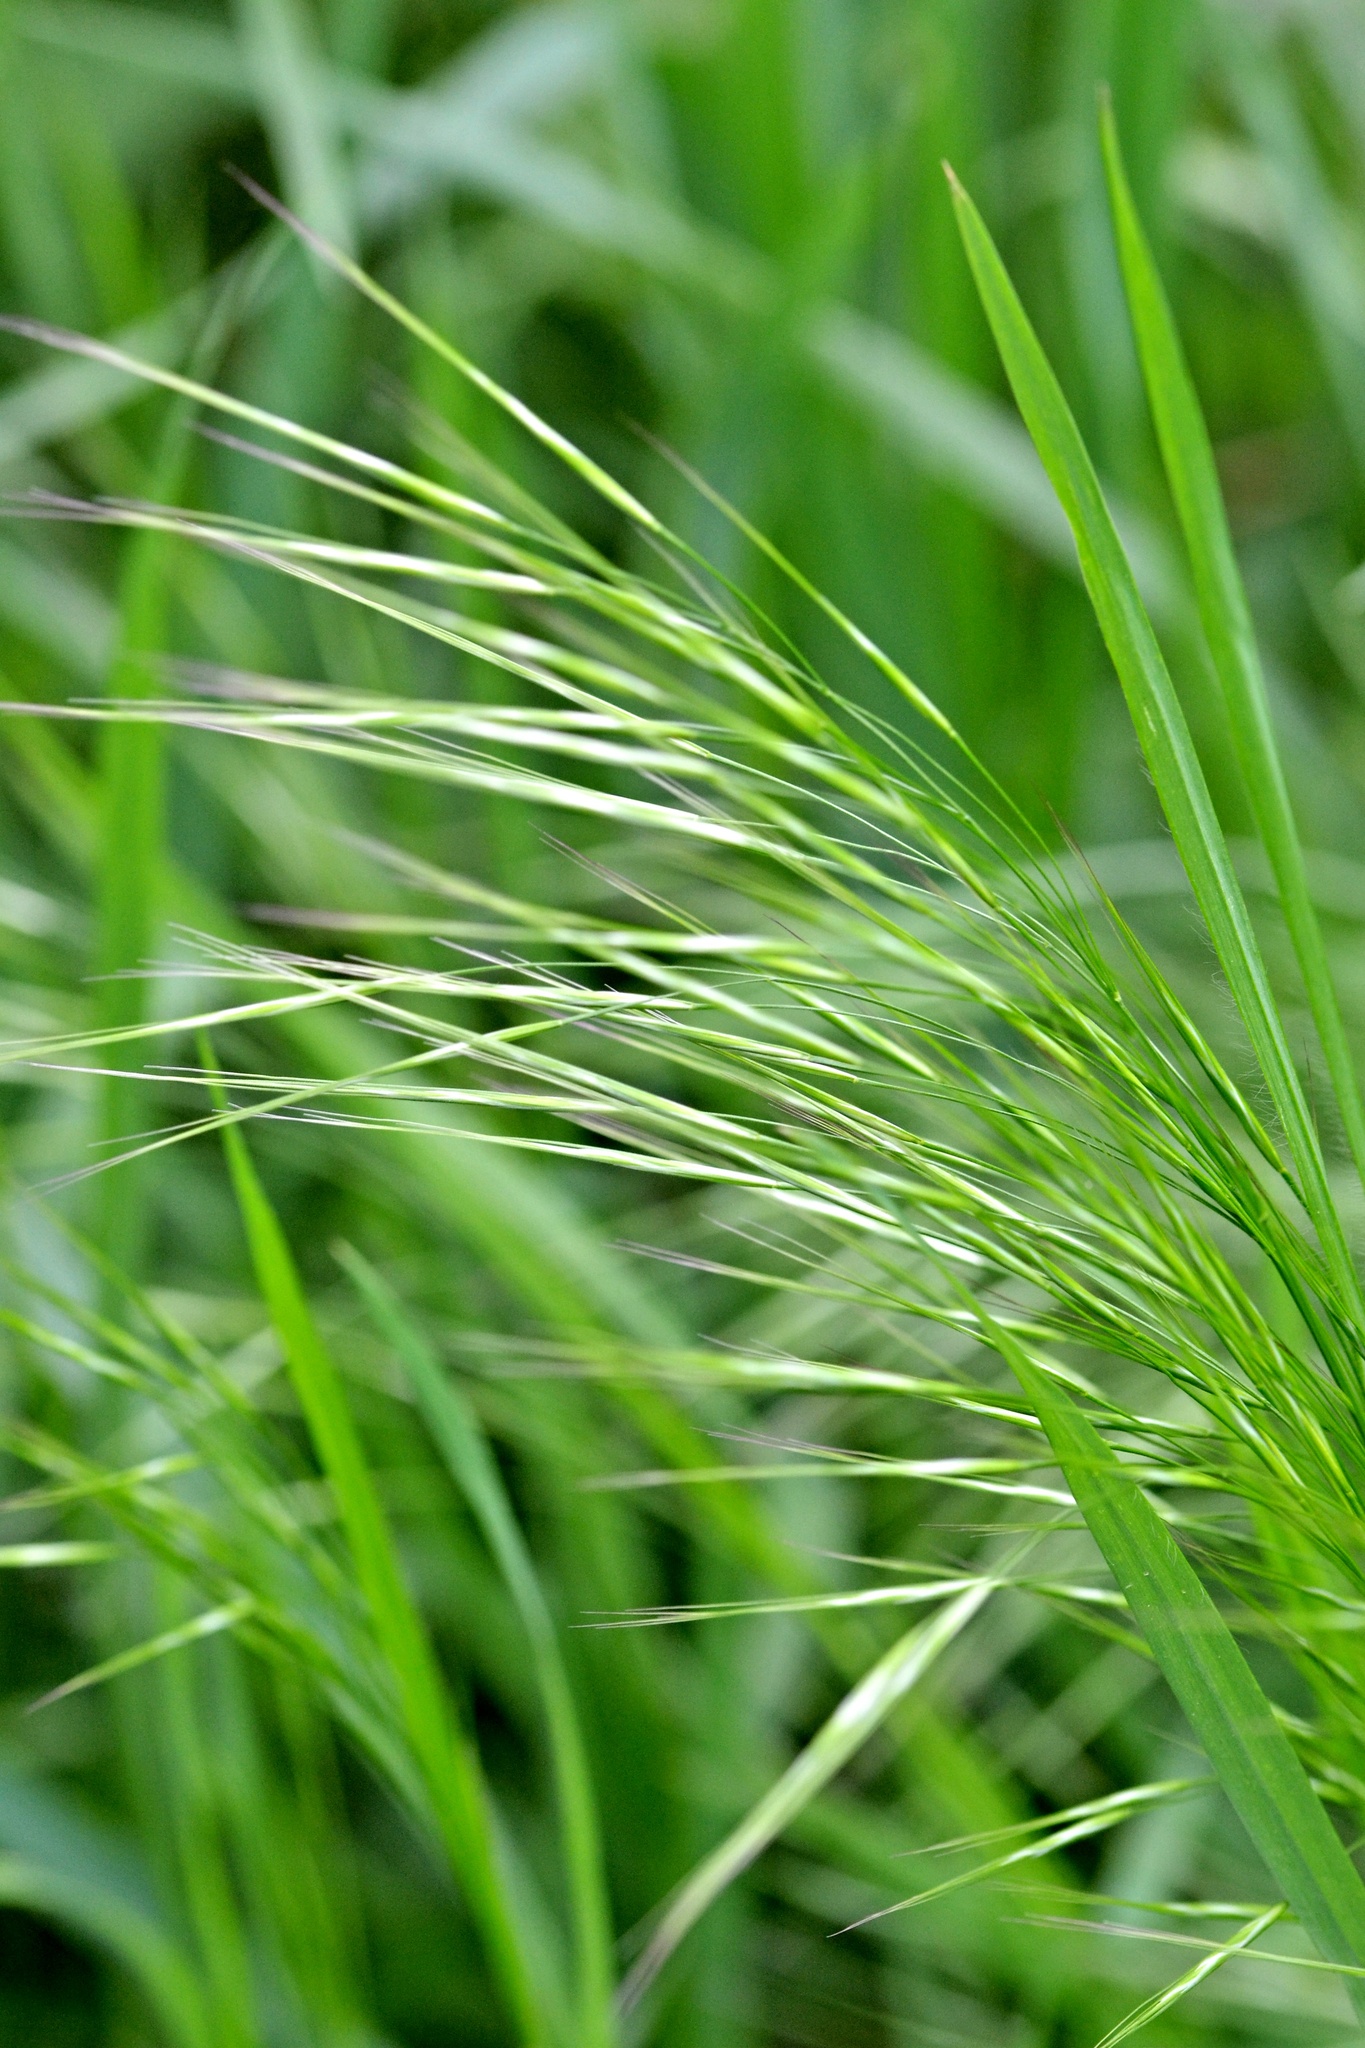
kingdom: Plantae
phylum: Tracheophyta
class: Liliopsida
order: Poales
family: Poaceae
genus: Bromus
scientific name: Bromus sterilis
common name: Poverty brome
